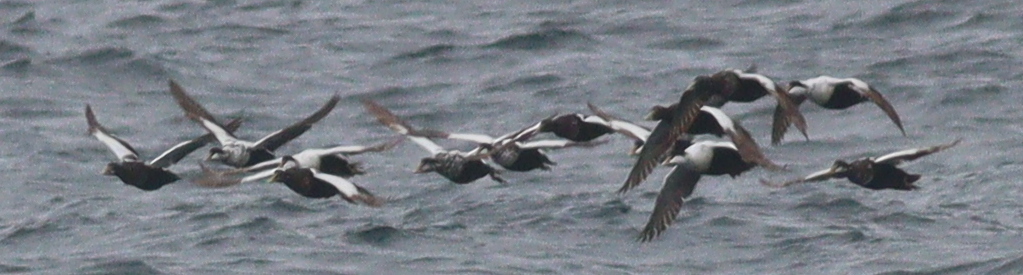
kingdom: Animalia
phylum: Chordata
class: Aves
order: Anseriformes
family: Anatidae
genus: Somateria
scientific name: Somateria mollissima
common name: Common eider
